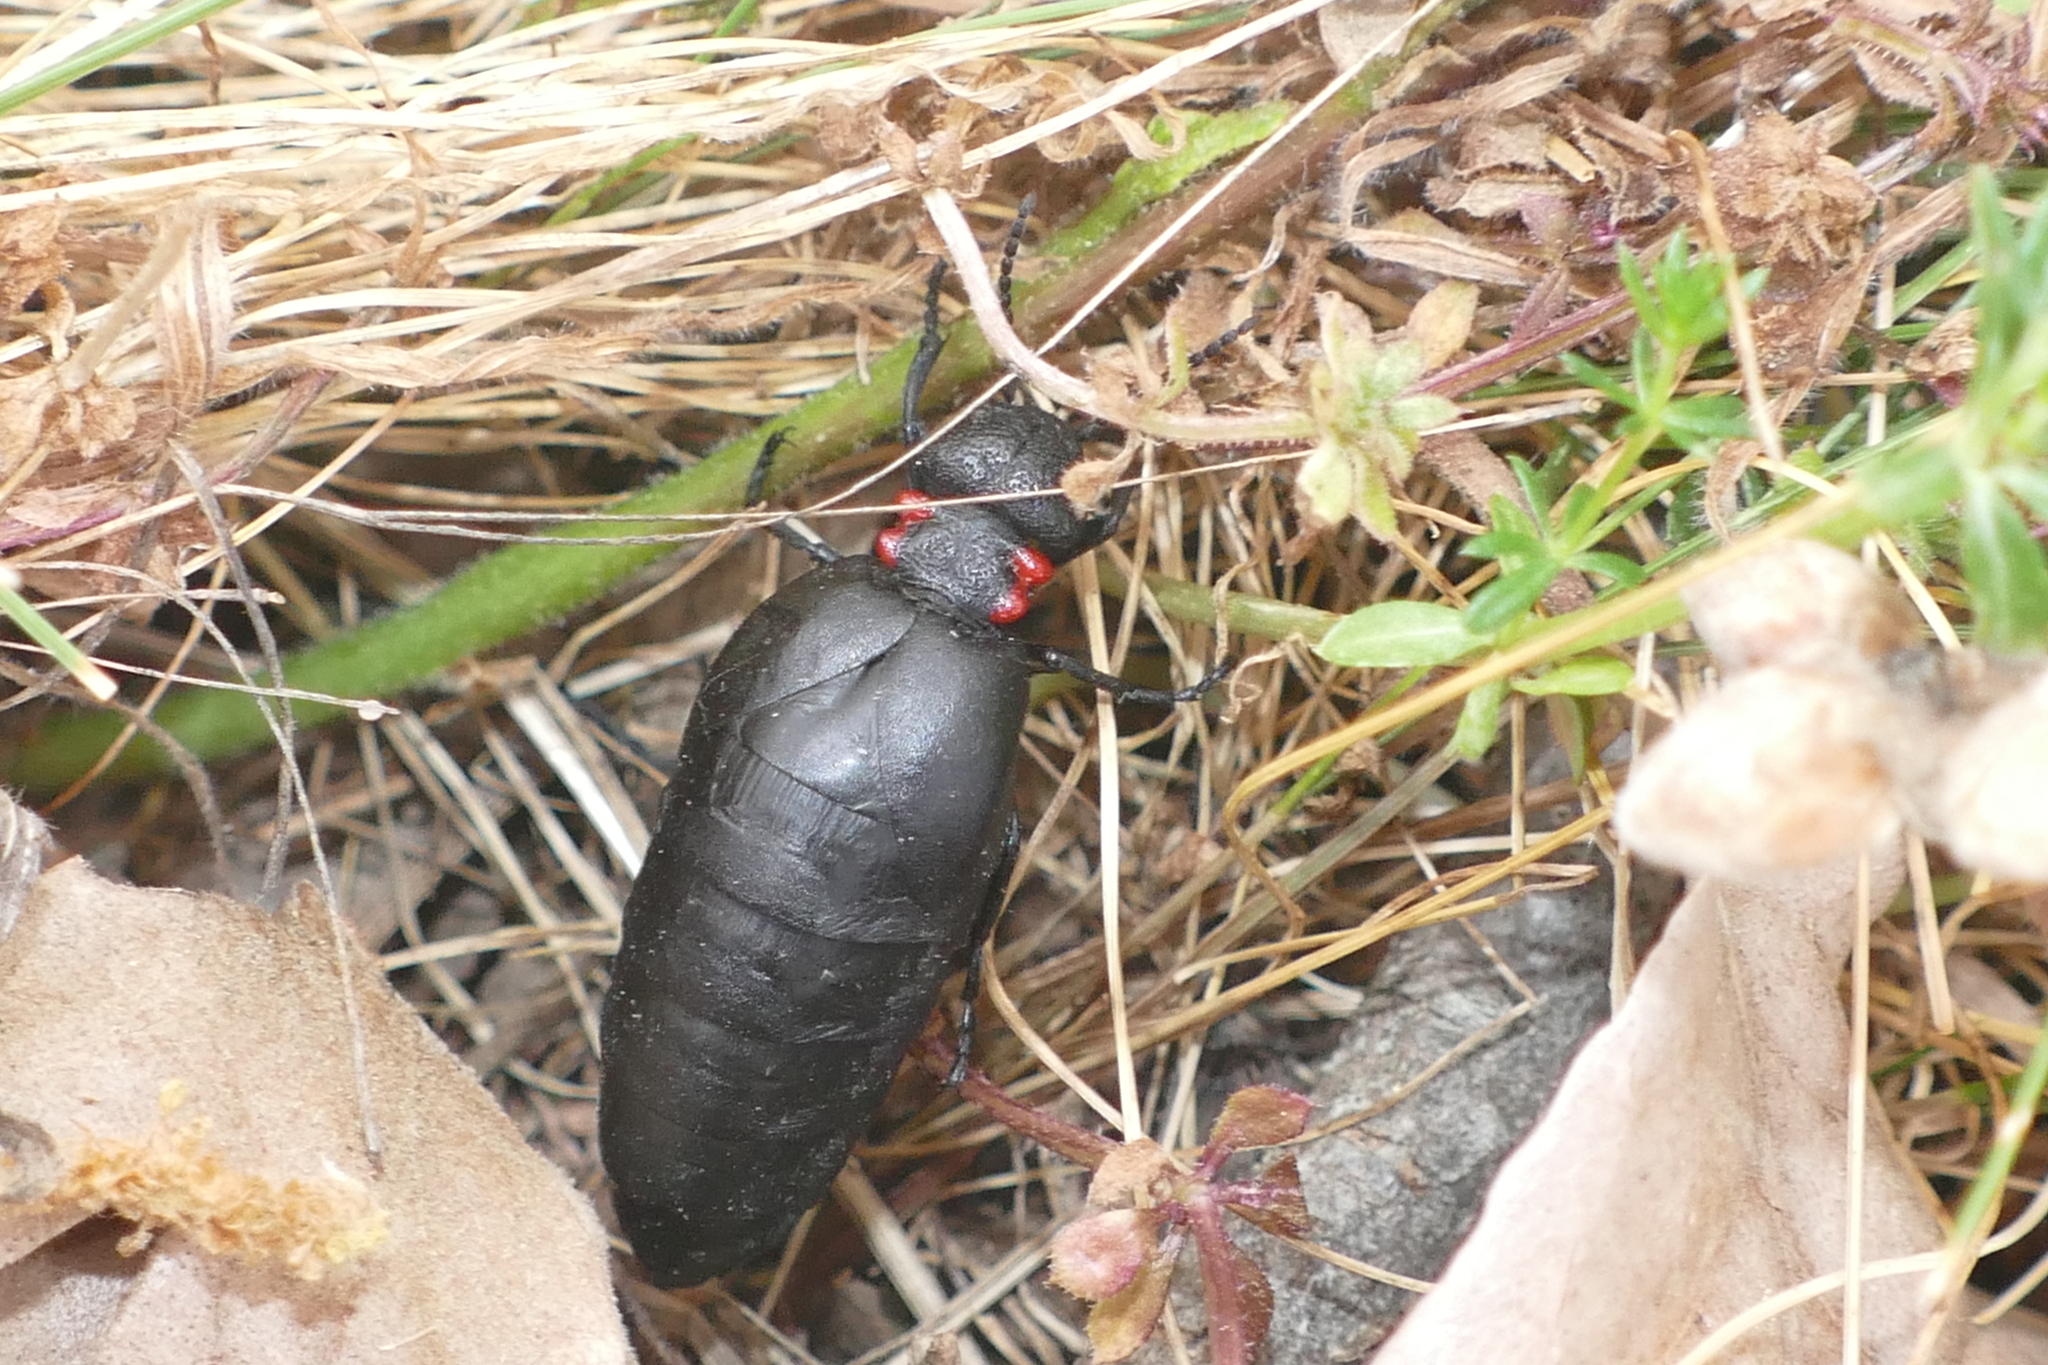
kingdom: Animalia
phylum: Arthropoda
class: Insecta
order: Coleoptera
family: Meloidae
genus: Physomeloe
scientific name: Physomeloe corallifer
